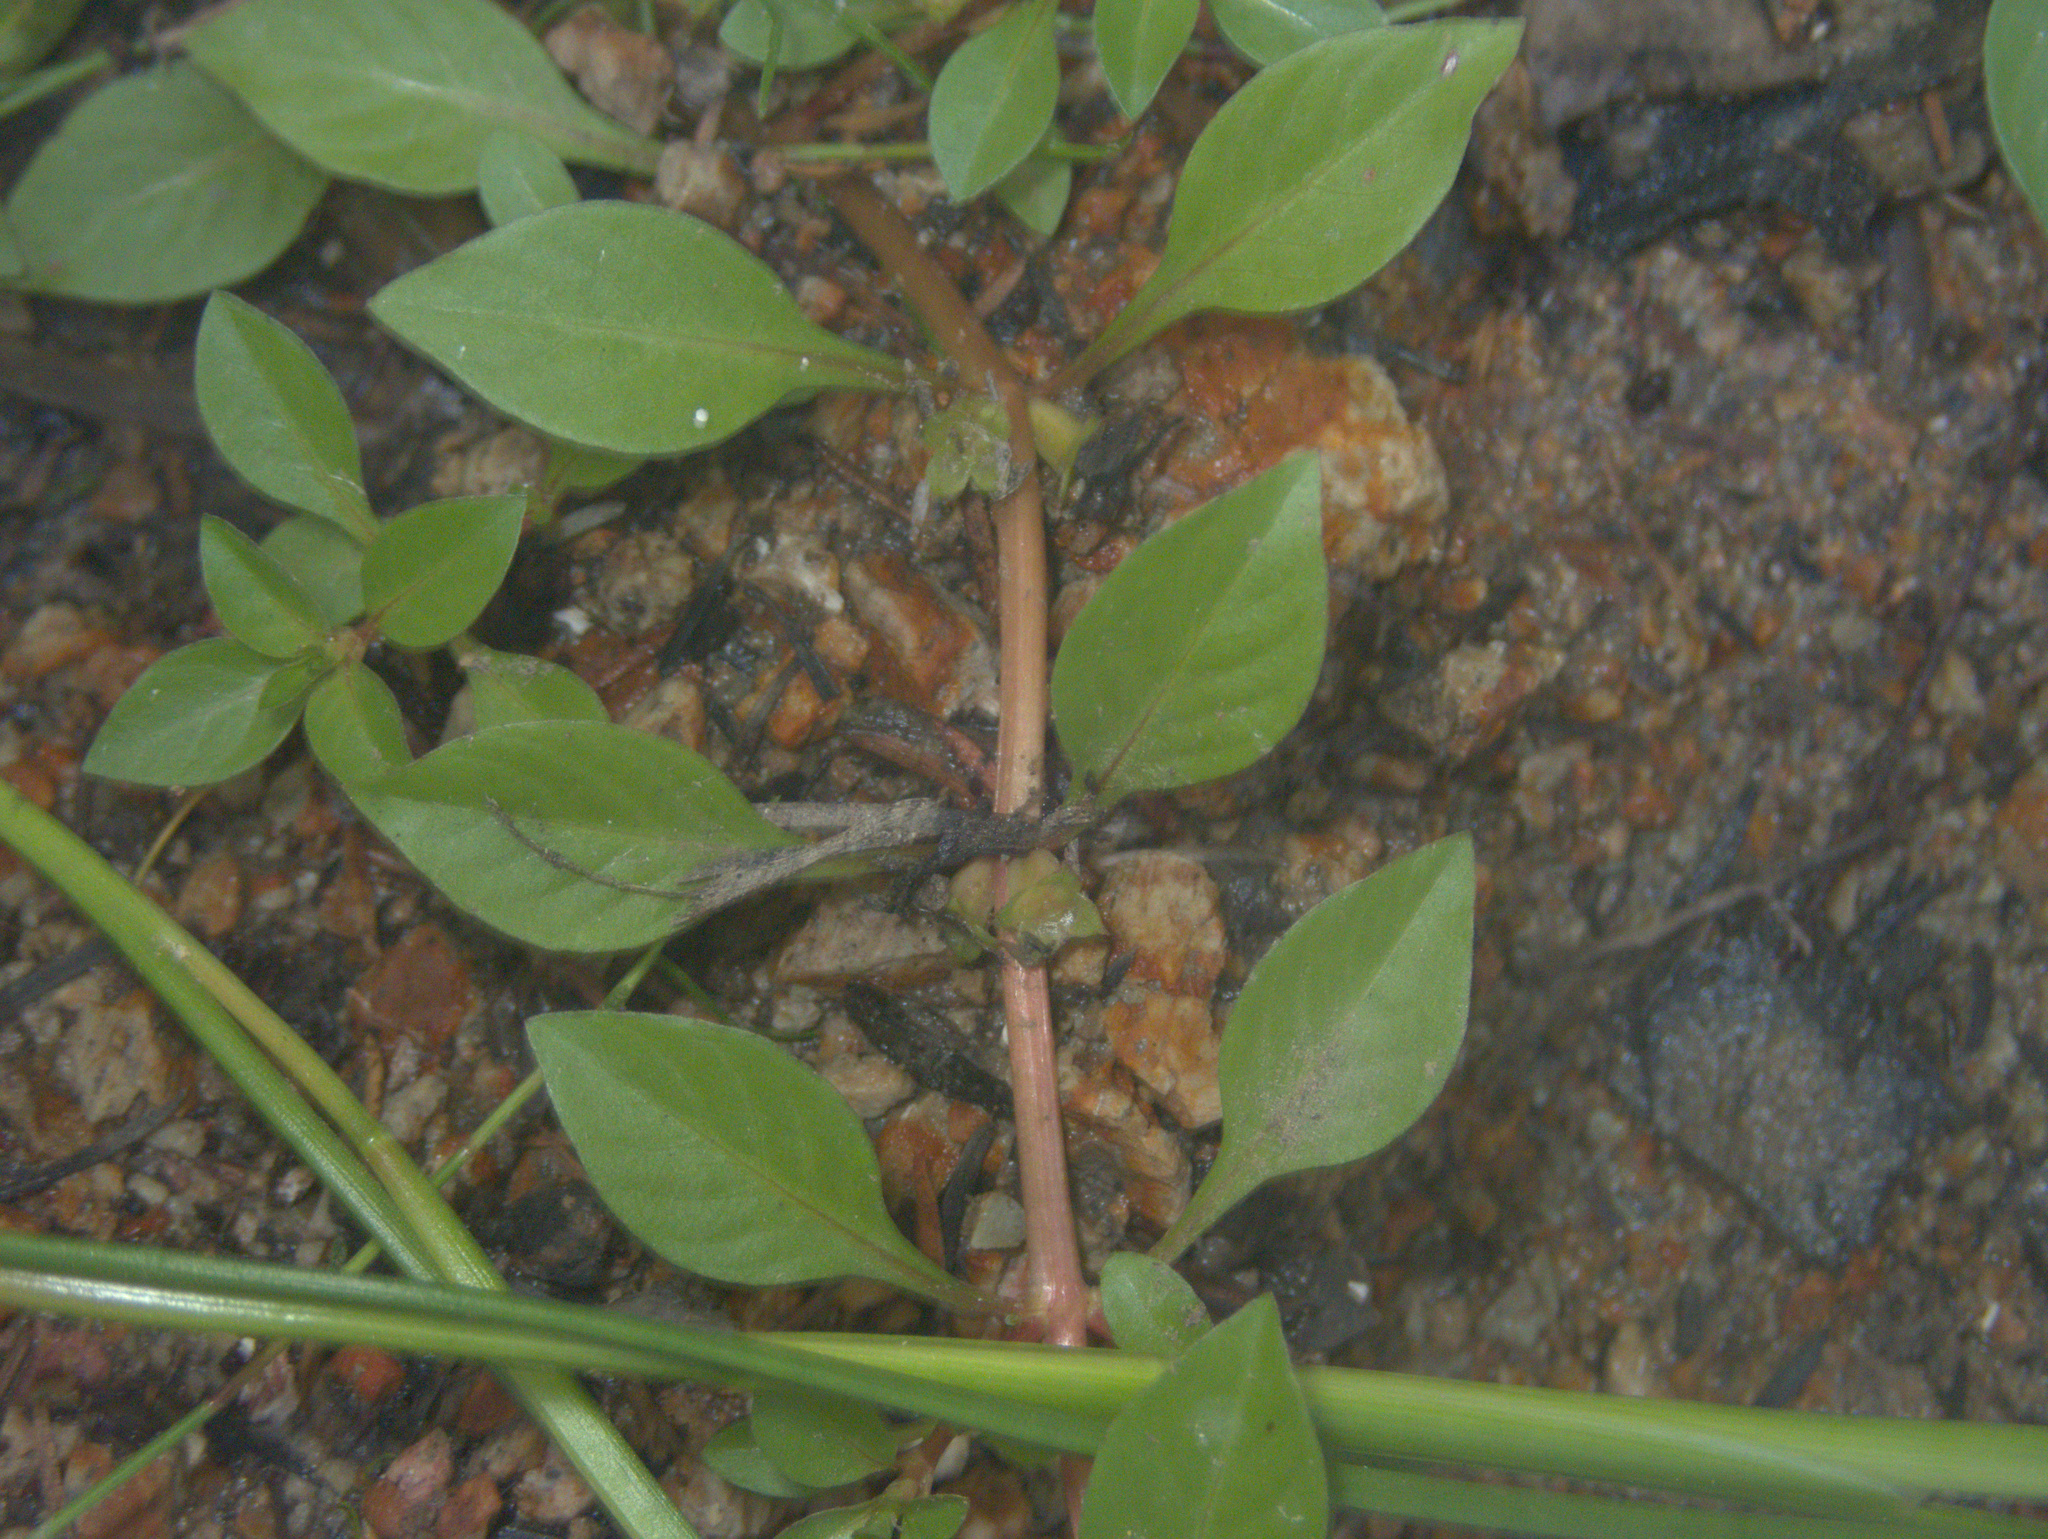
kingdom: Plantae
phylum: Tracheophyta
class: Magnoliopsida
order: Myrtales
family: Onagraceae
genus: Ludwigia
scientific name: Ludwigia palustris
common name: Hampshire-purslane
